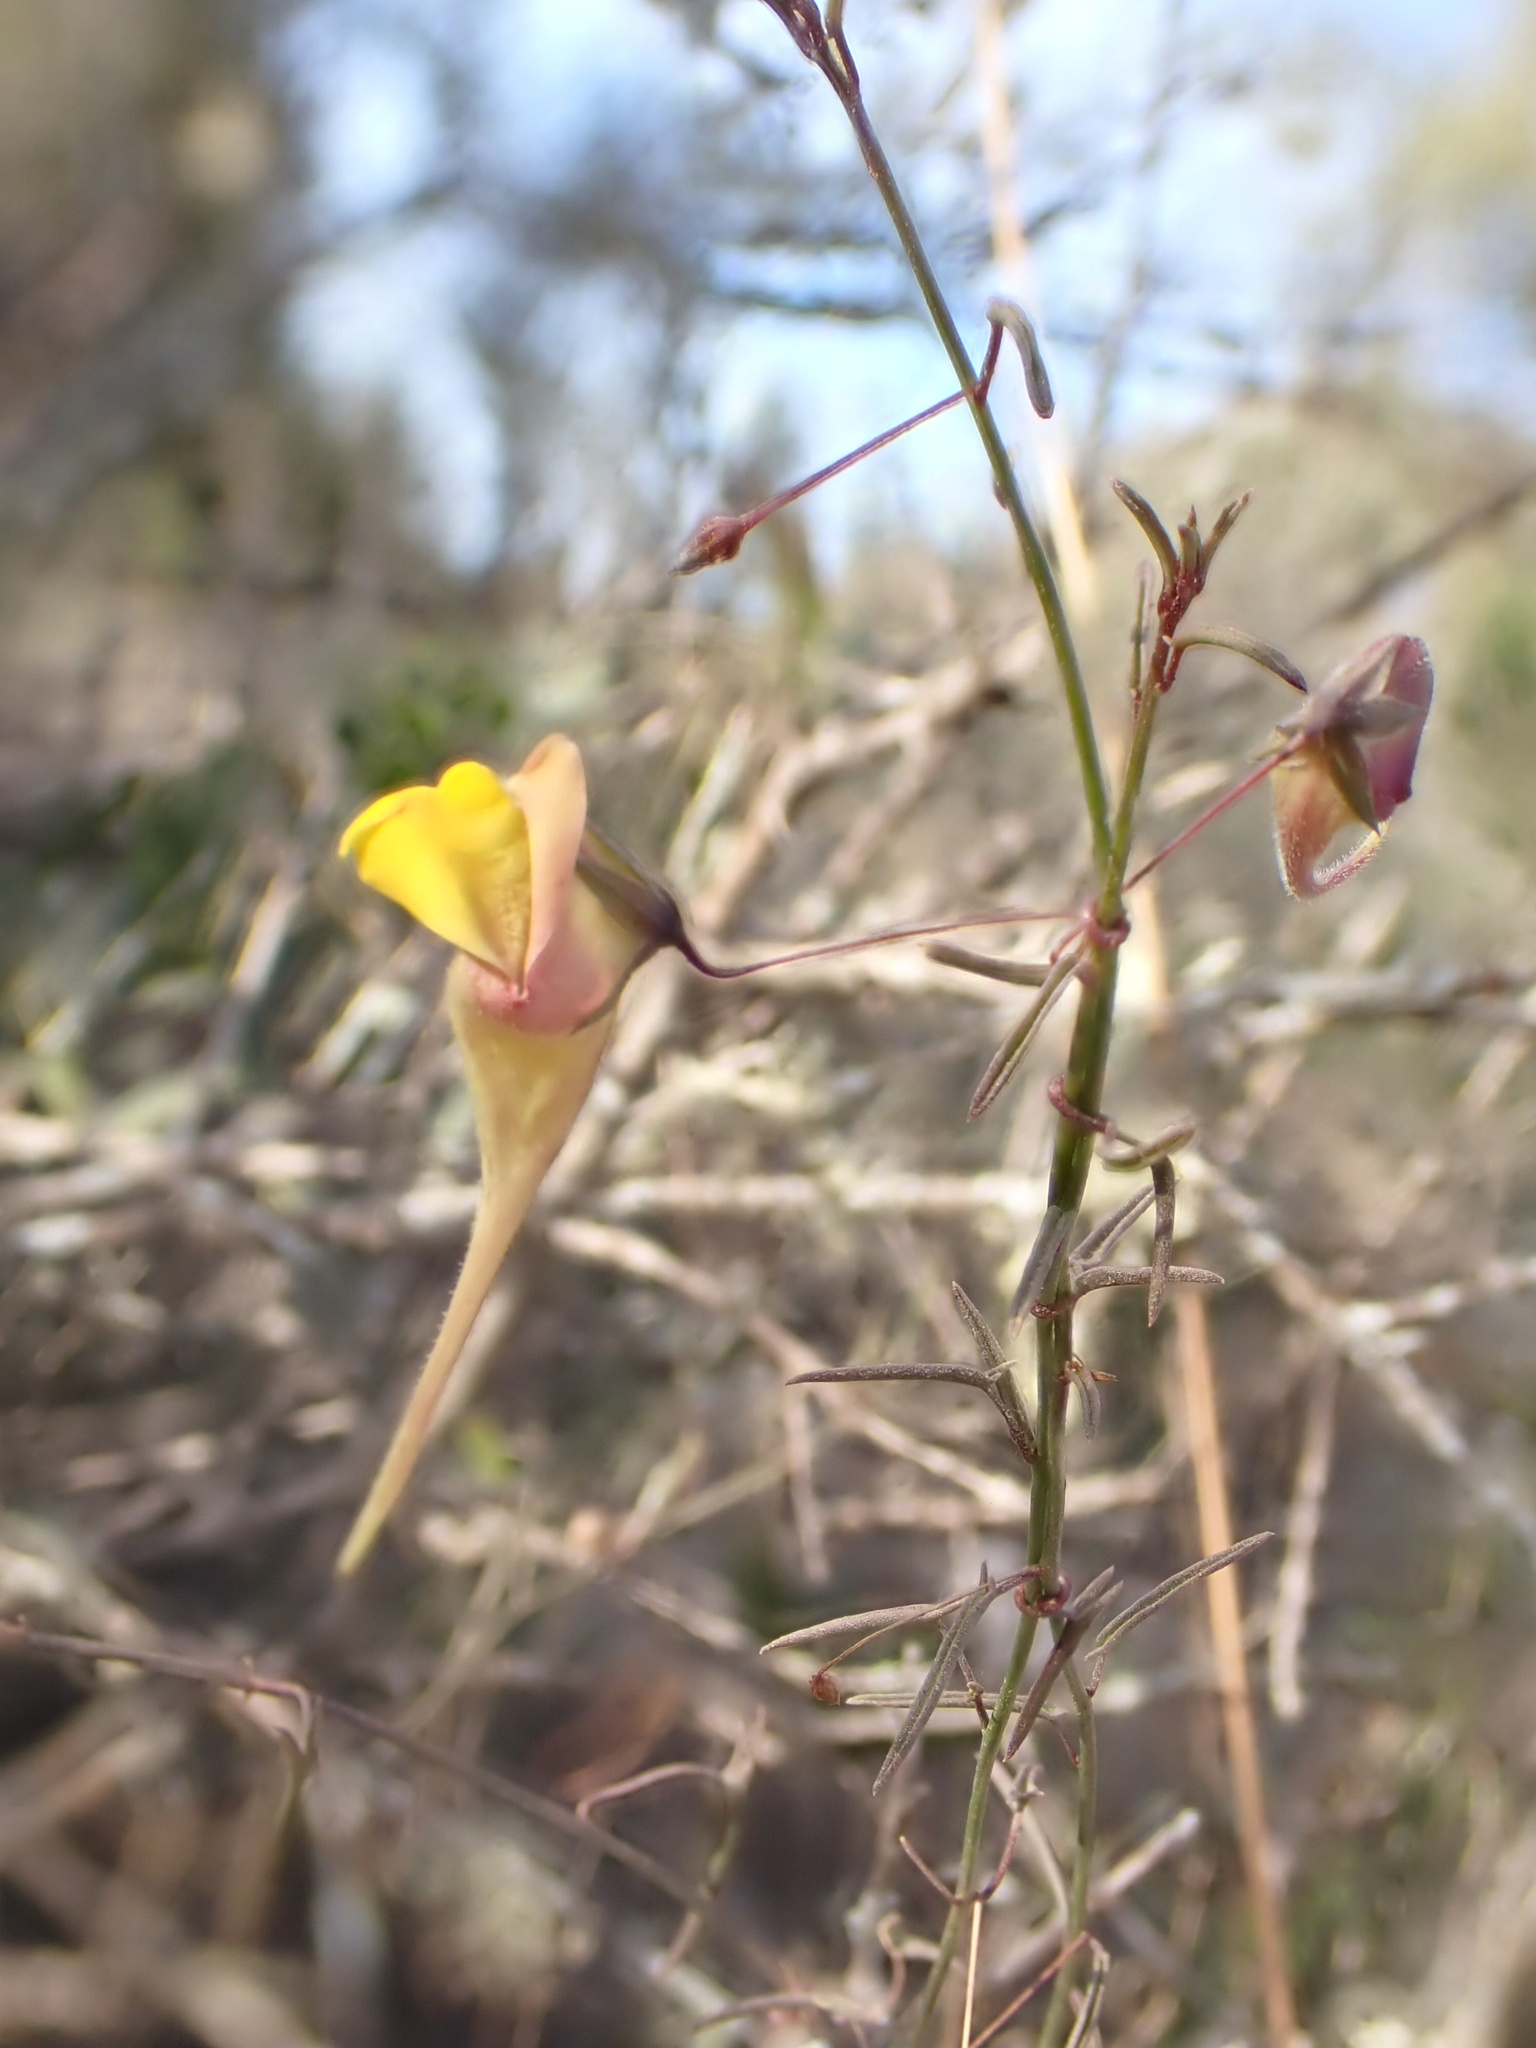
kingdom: Plantae
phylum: Tracheophyta
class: Magnoliopsida
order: Lamiales
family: Plantaginaceae
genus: Nanorrhinum
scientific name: Nanorrhinum heterophyllum
